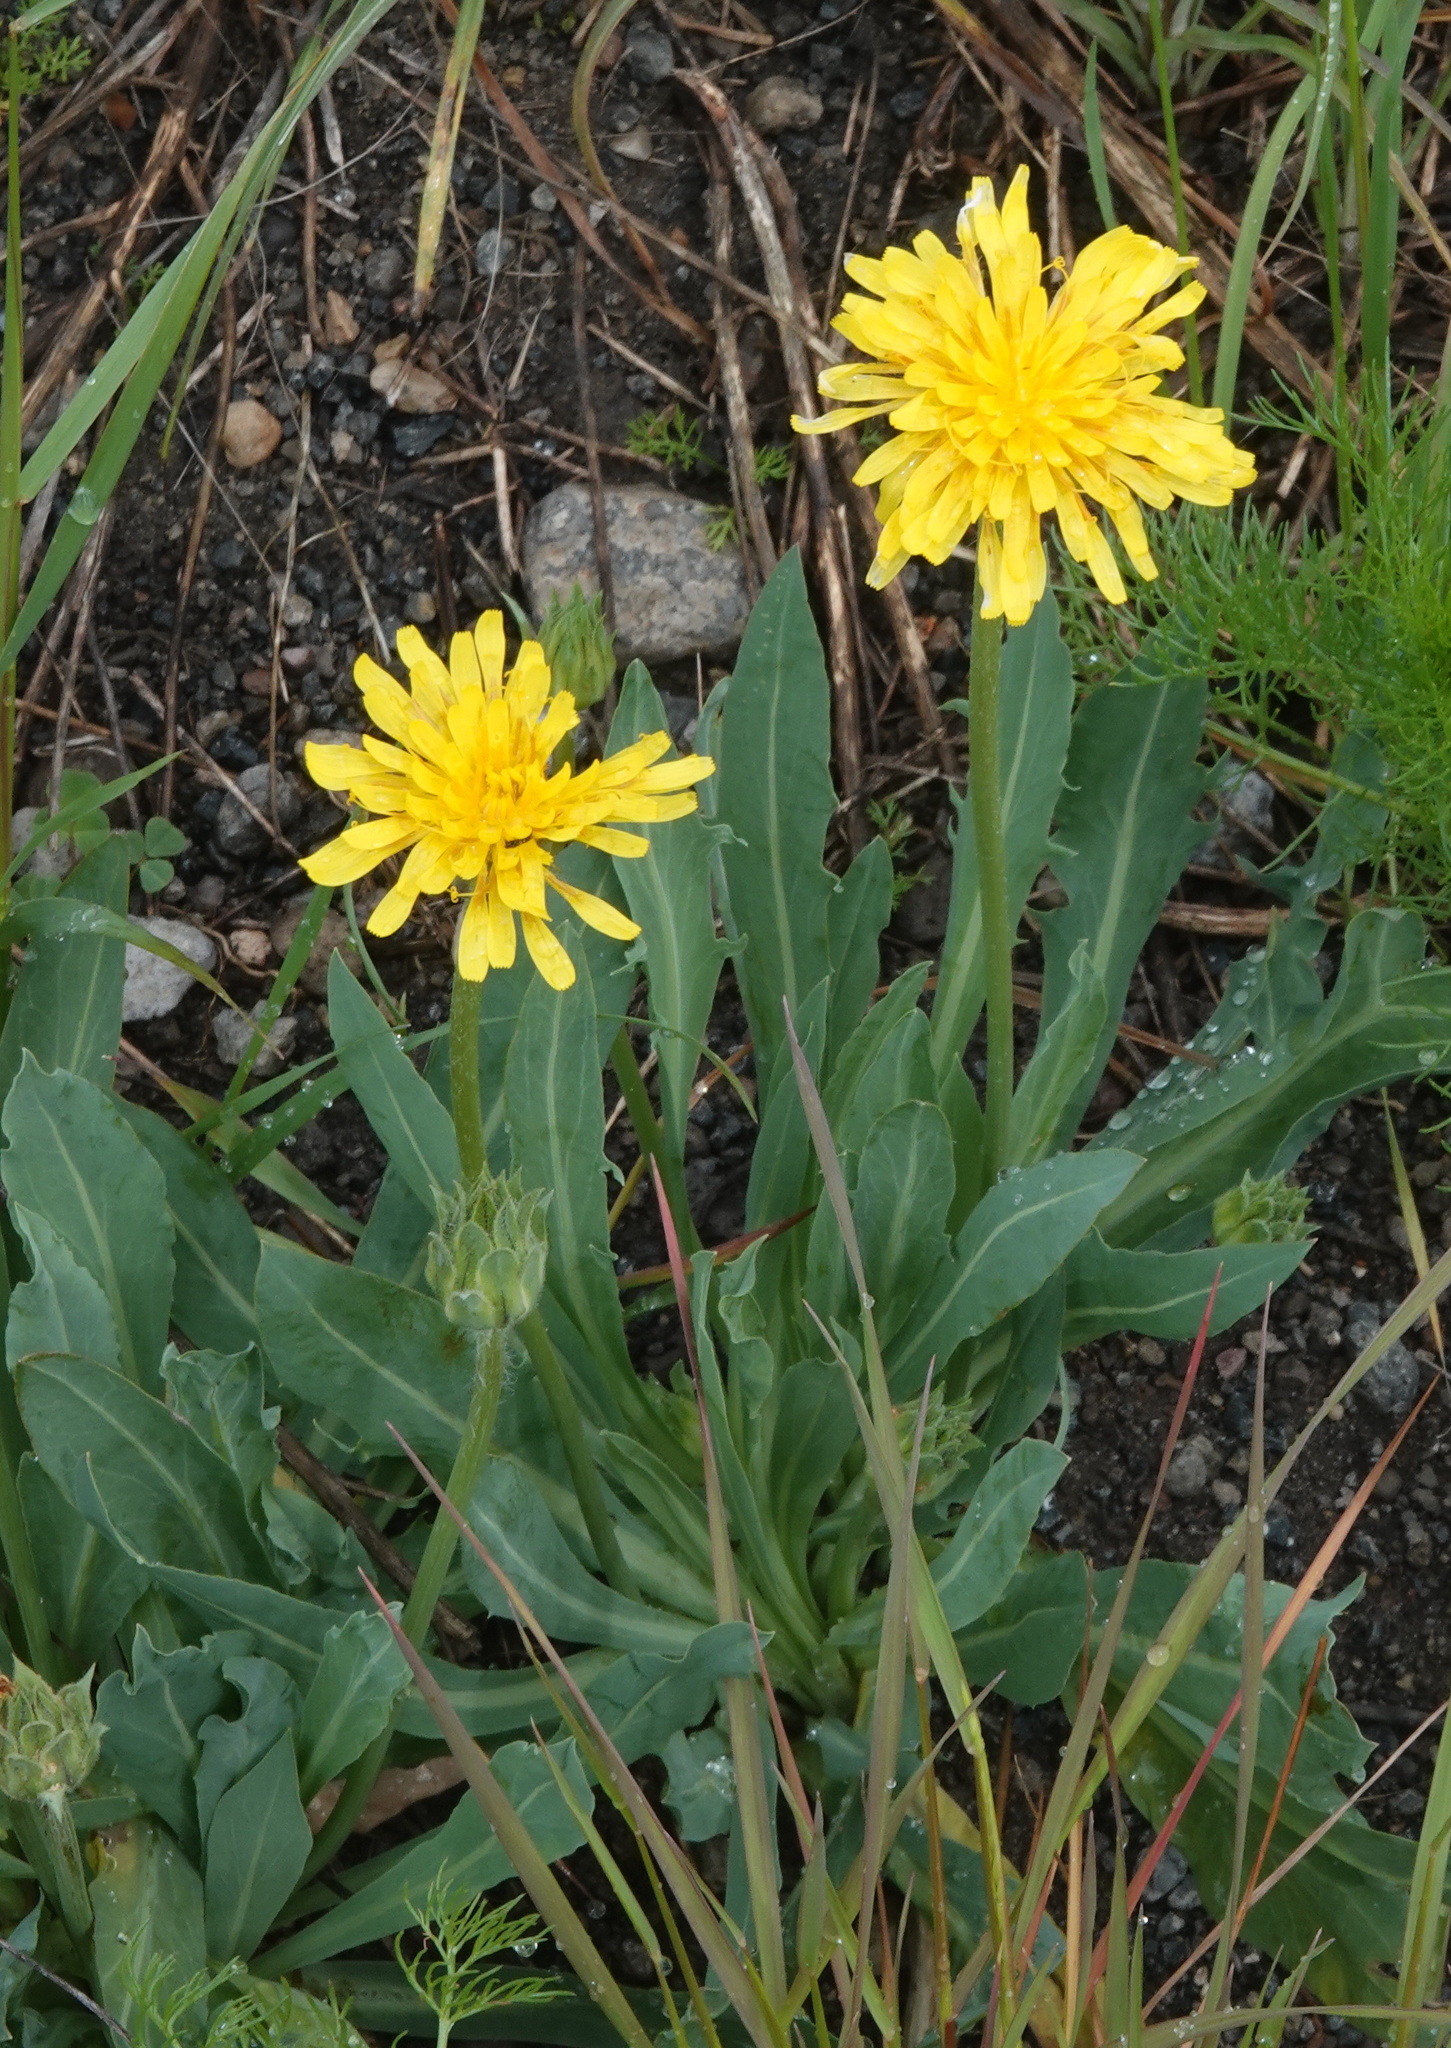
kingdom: Plantae
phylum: Tracheophyta
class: Magnoliopsida
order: Asterales
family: Asteraceae
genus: Agoseris
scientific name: Agoseris glauca
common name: Prairie agoseris
